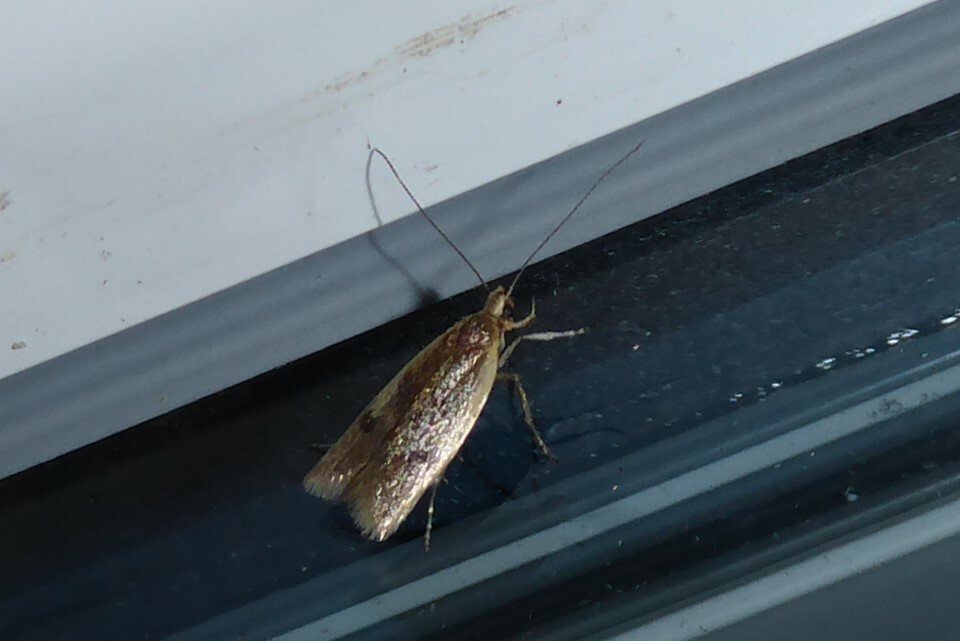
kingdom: Animalia
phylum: Arthropoda
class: Insecta
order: Lepidoptera
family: Oecophoridae
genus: Gymnobathra
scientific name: Gymnobathra parca
